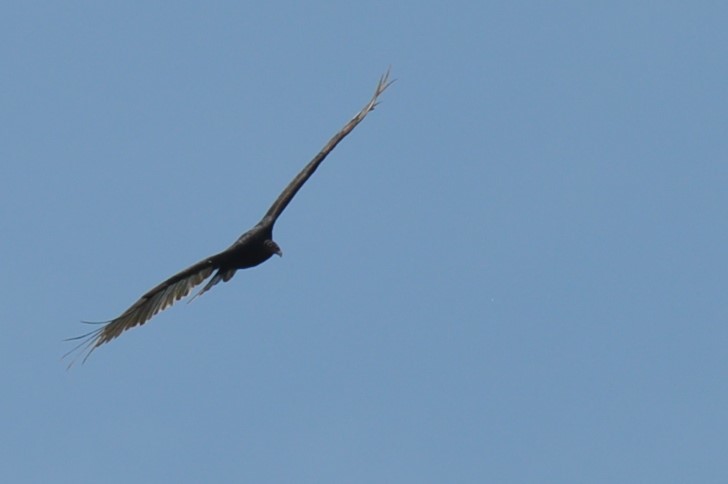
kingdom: Animalia
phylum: Chordata
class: Aves
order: Accipitriformes
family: Cathartidae
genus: Cathartes
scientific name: Cathartes aura
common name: Turkey vulture
